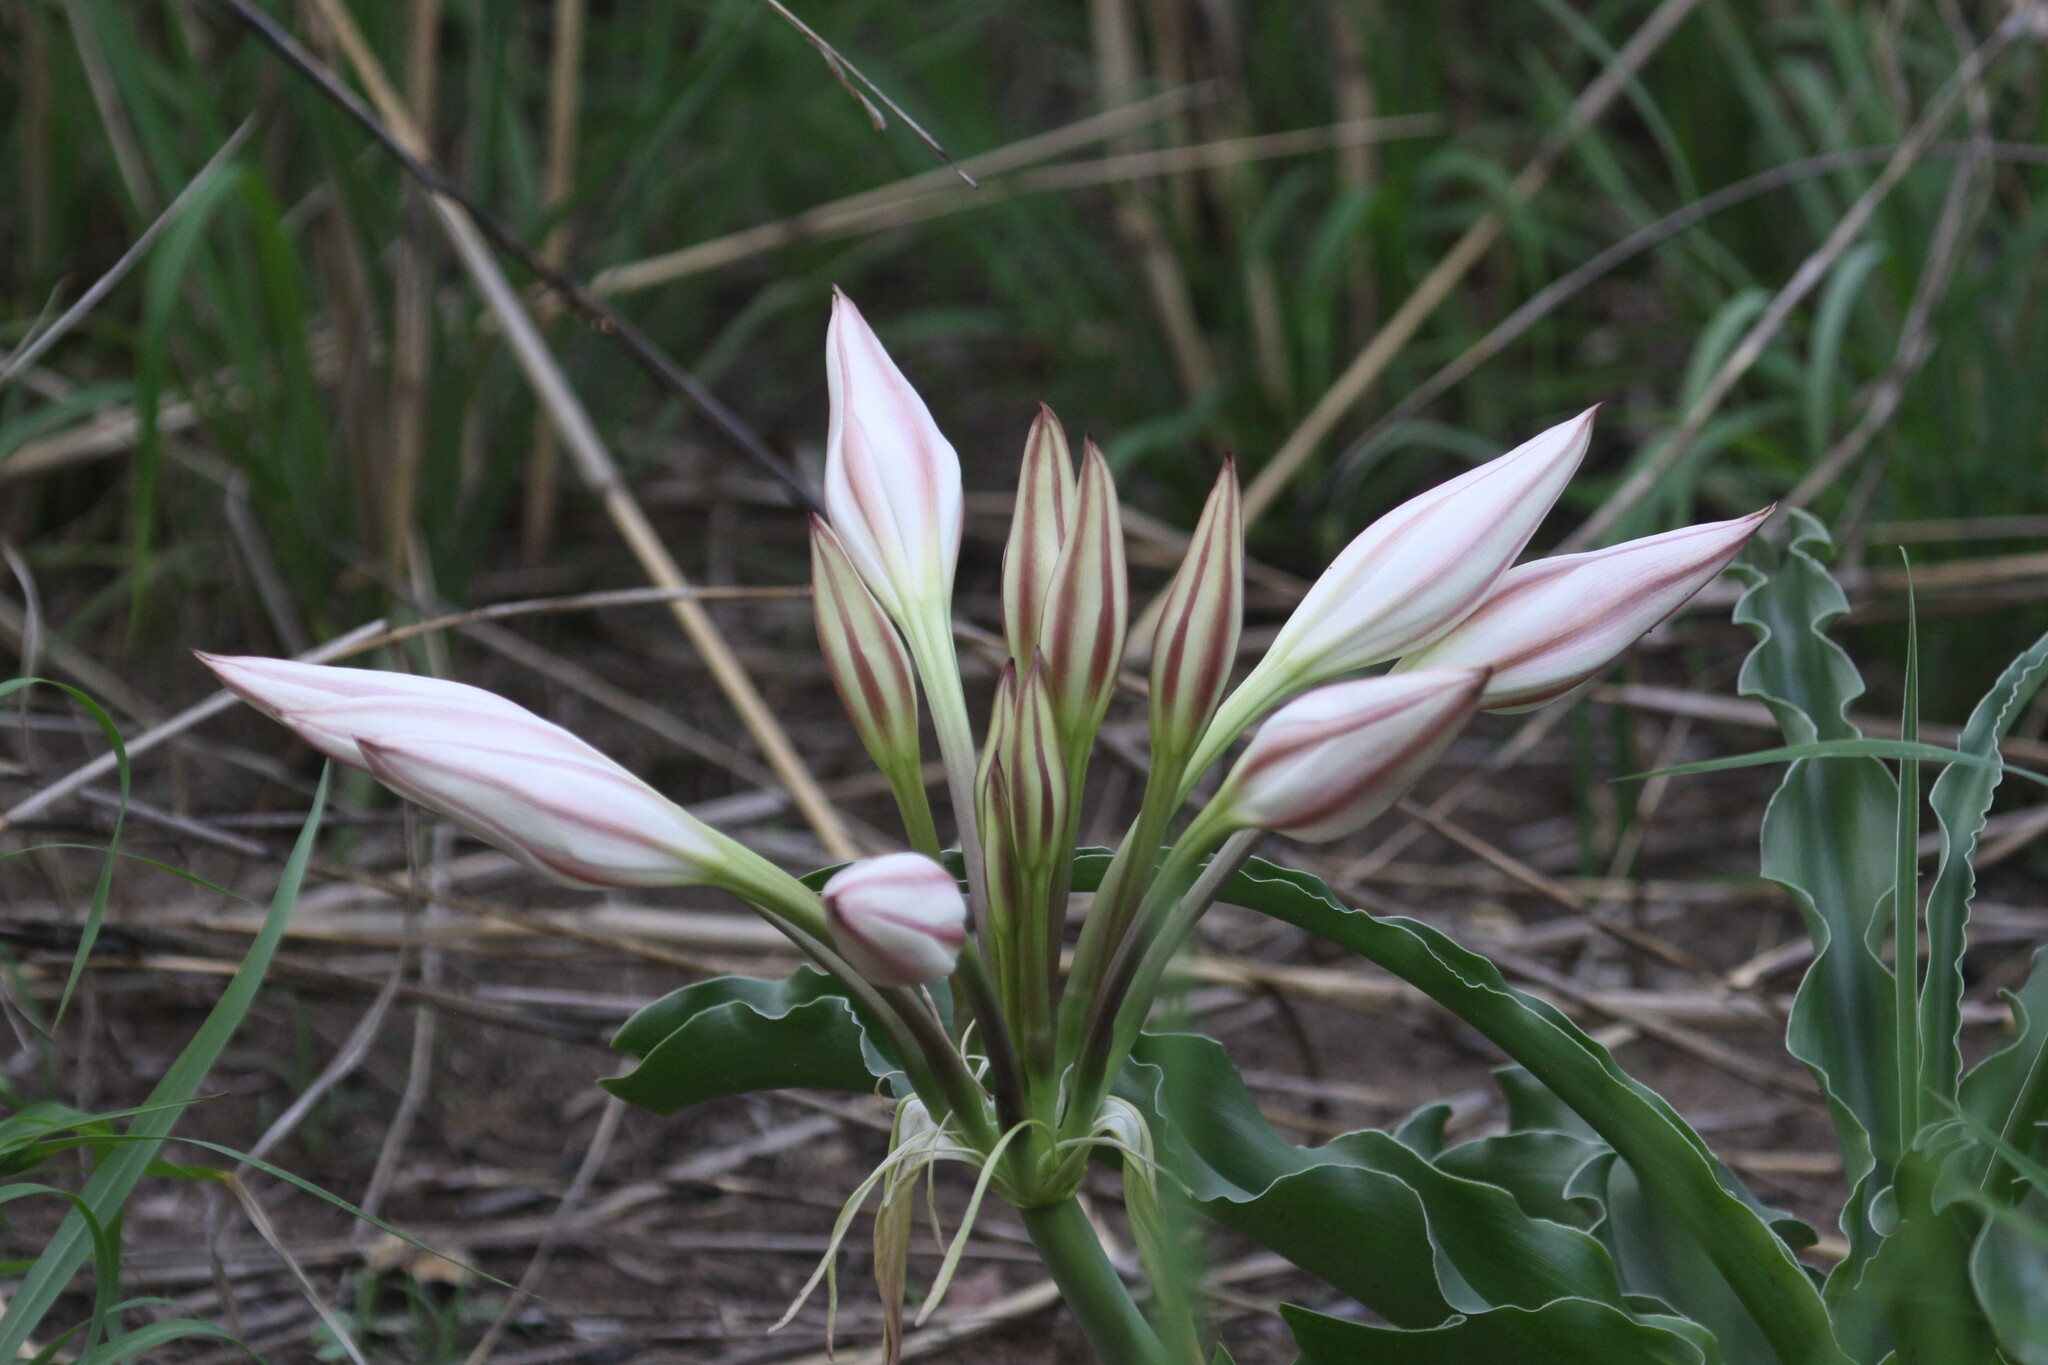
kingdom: Plantae
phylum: Tracheophyta
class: Liliopsida
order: Asparagales
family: Amaryllidaceae
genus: Crinum
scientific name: Crinum macowanii
